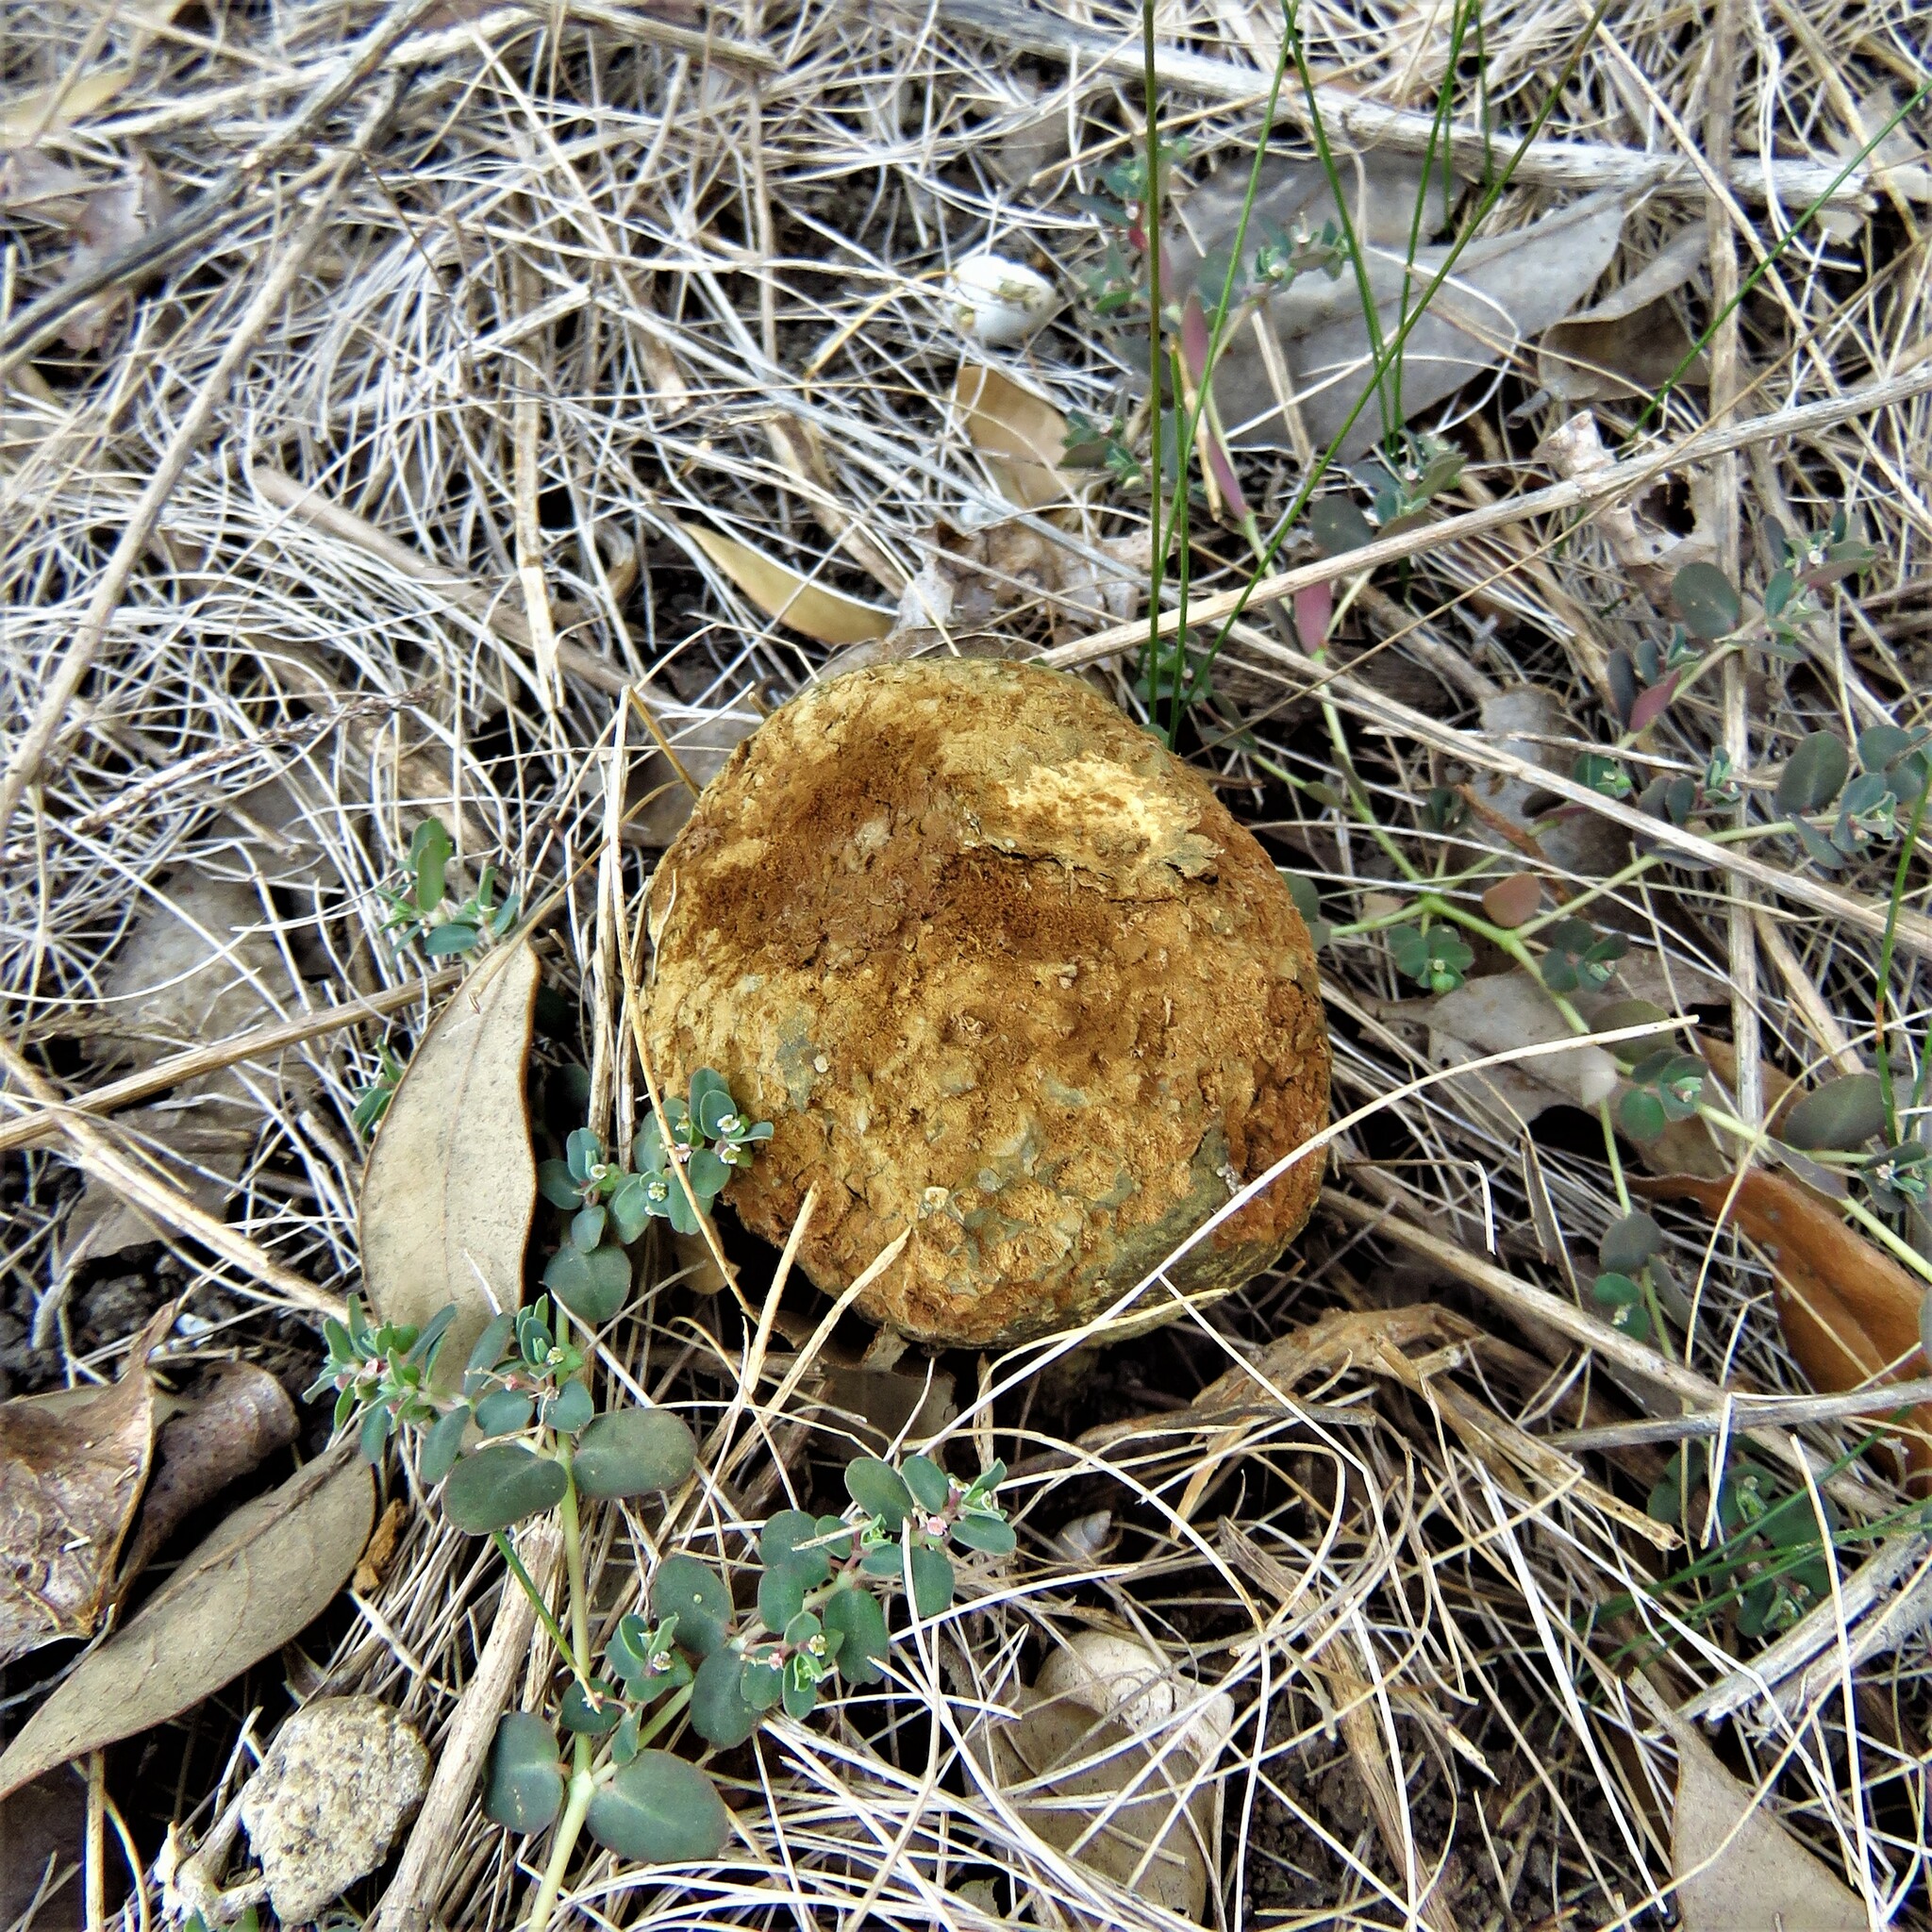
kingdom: Fungi
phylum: Basidiomycota
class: Agaricomycetes
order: Boletales
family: Sclerodermataceae
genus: Pisolithus
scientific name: Pisolithus arenarius
